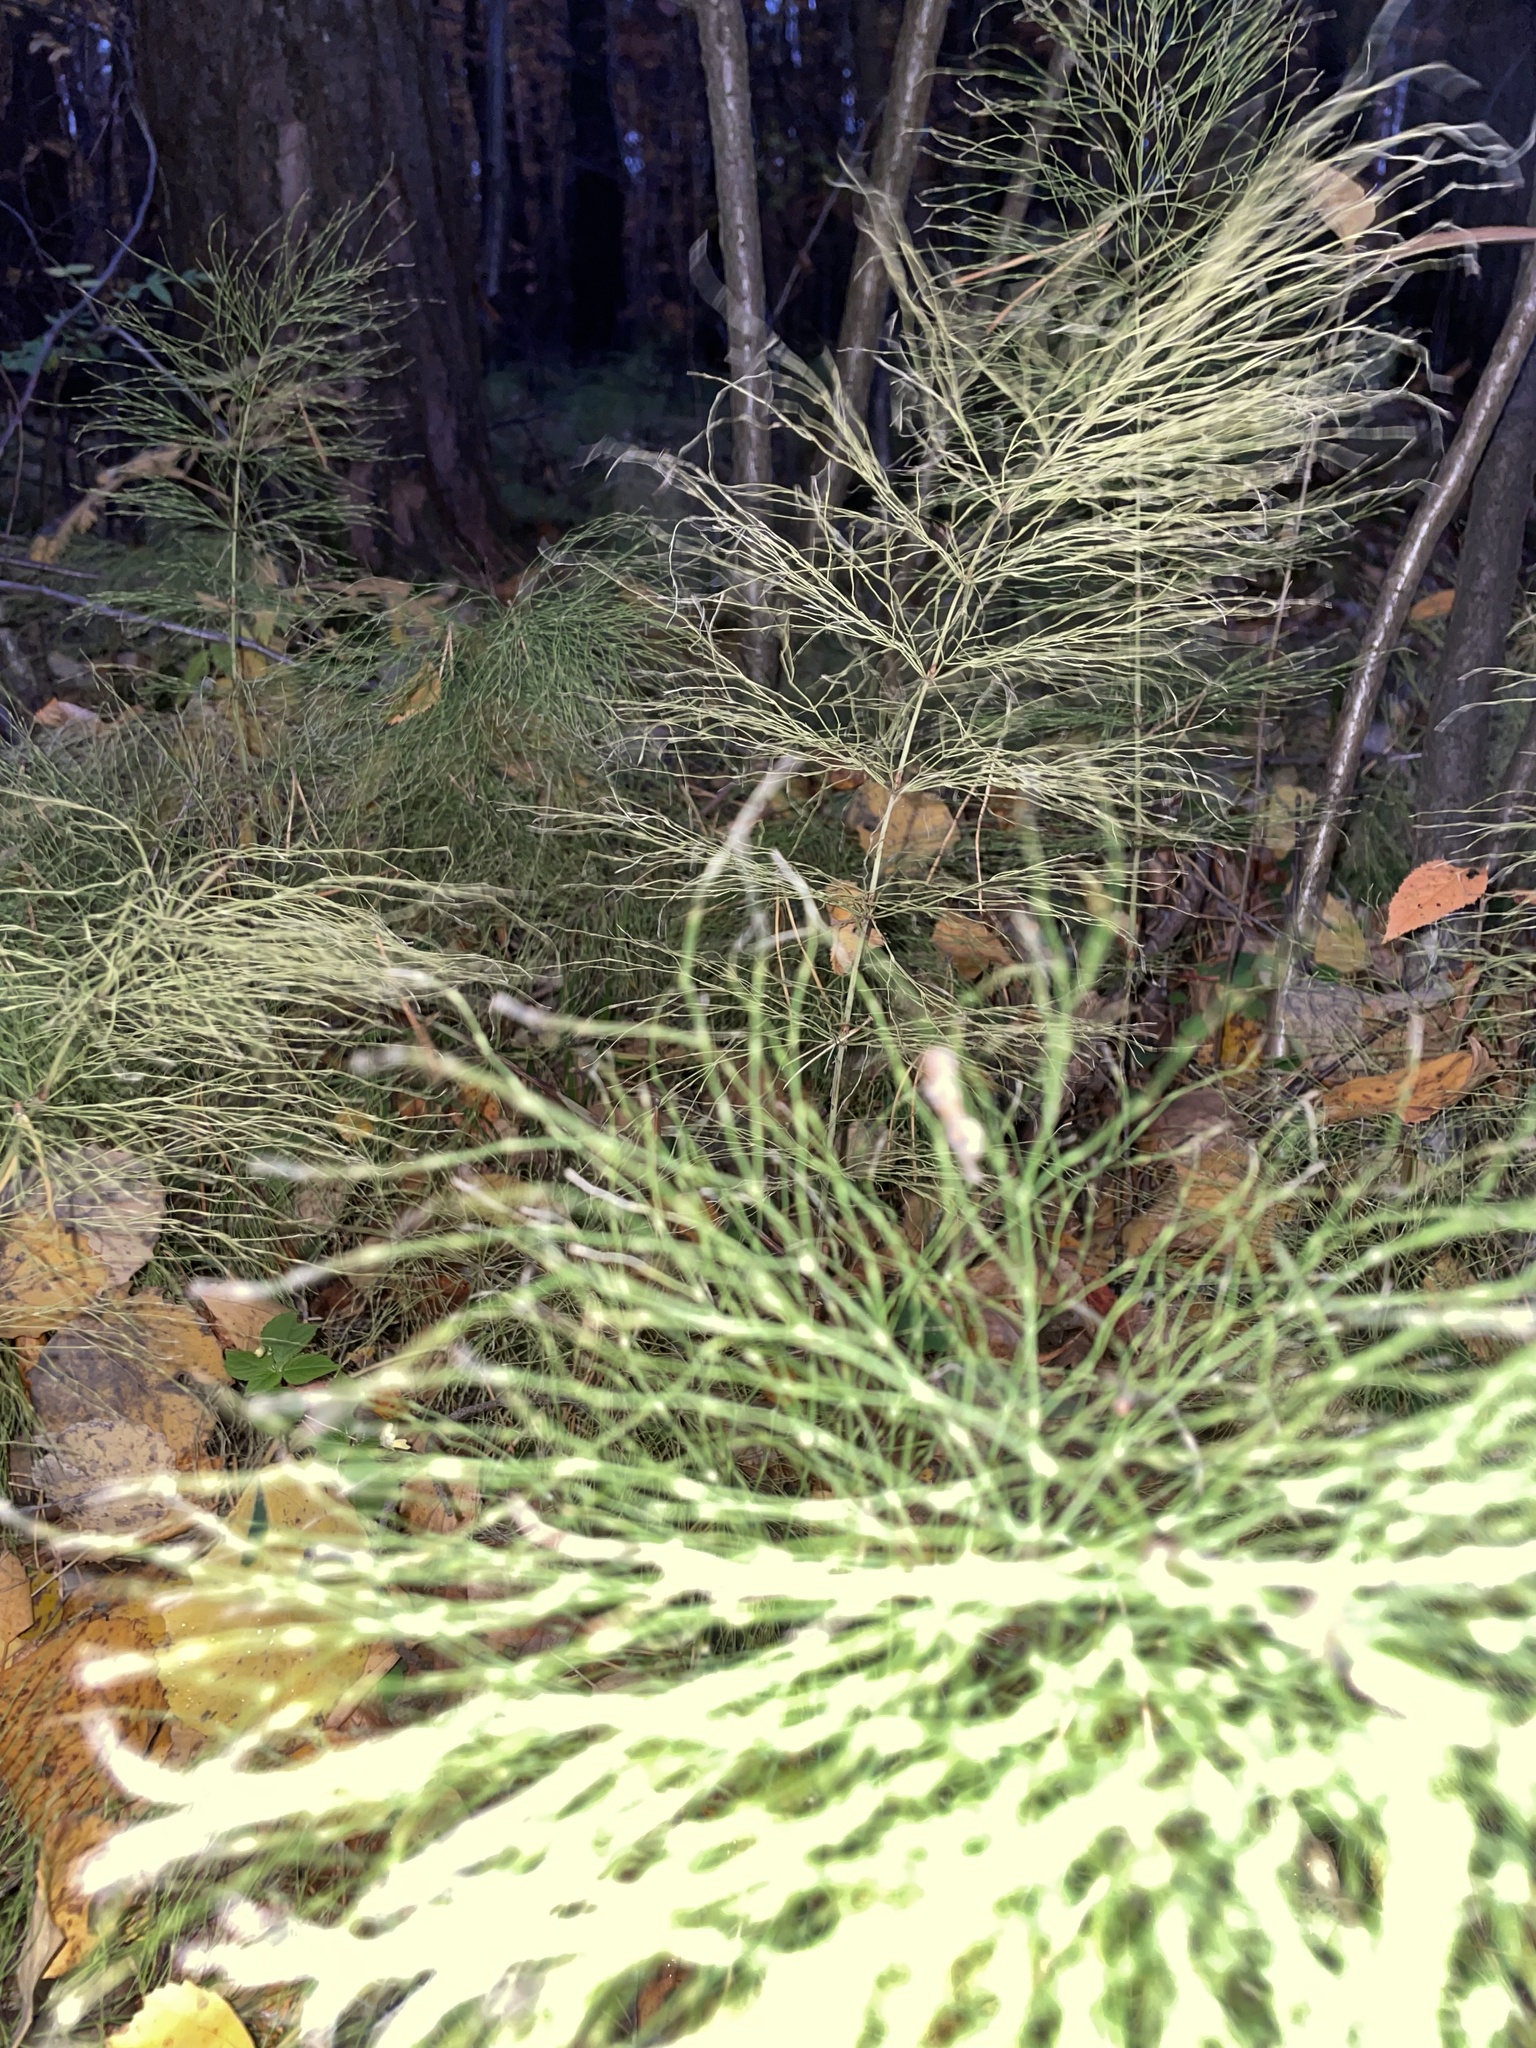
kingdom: Plantae
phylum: Tracheophyta
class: Polypodiopsida
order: Equisetales
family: Equisetaceae
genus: Equisetum
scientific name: Equisetum sylvaticum
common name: Wood horsetail
